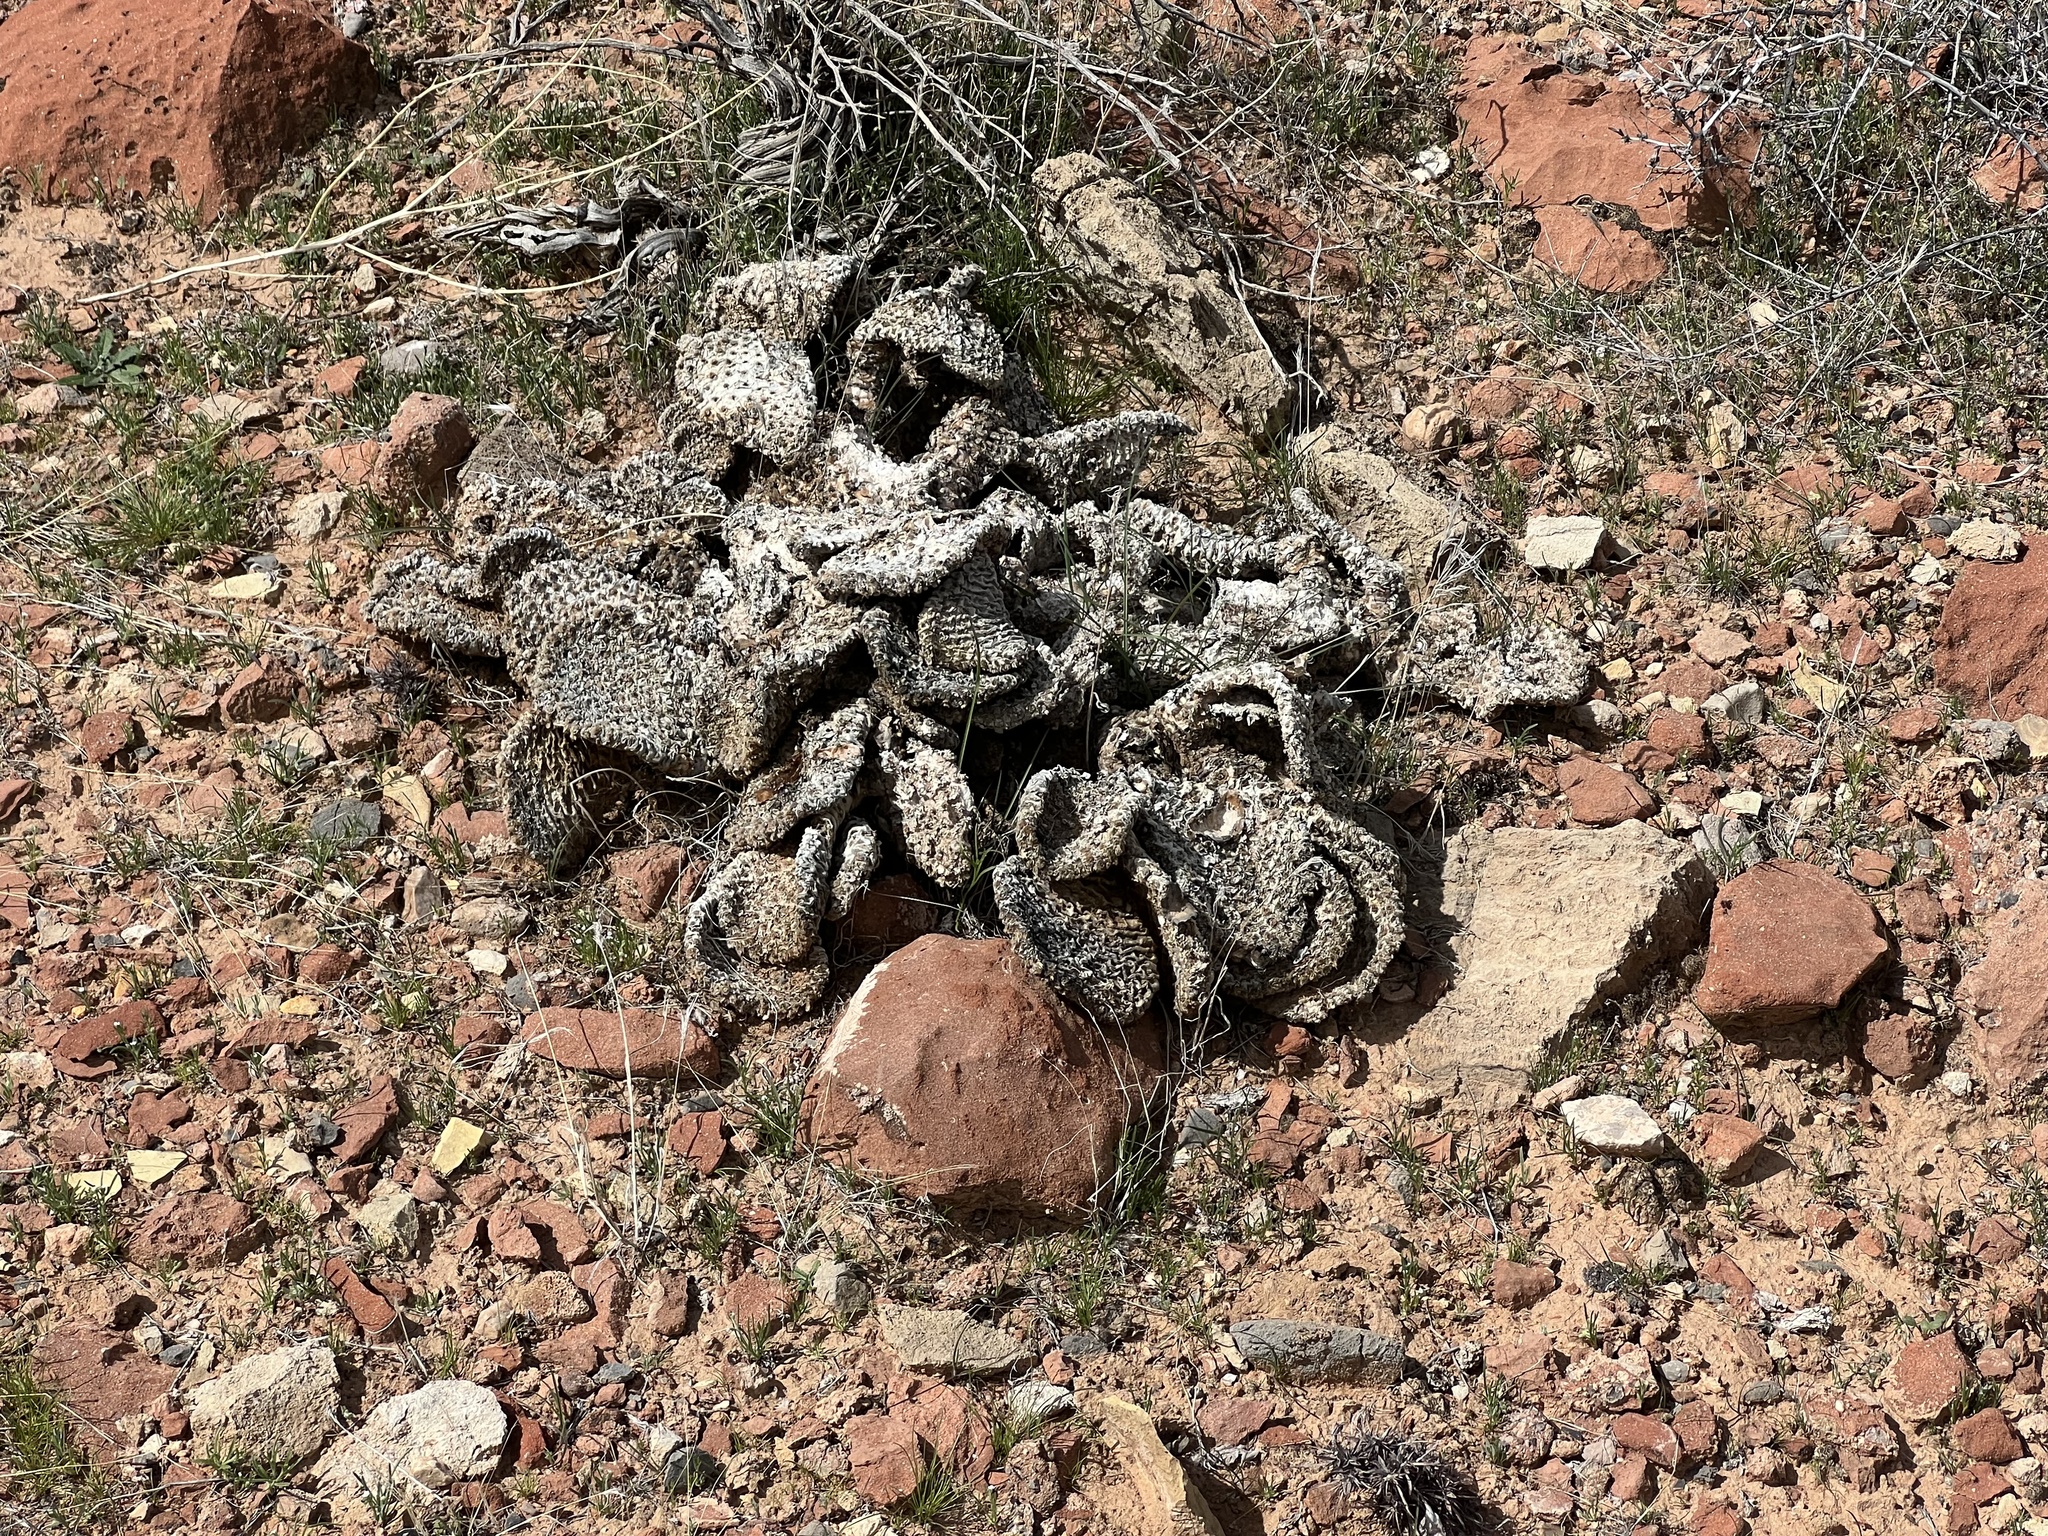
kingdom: Plantae
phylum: Tracheophyta
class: Magnoliopsida
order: Caryophyllales
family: Cactaceae
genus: Opuntia
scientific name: Opuntia basilaris
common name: Beavertail prickly-pear
